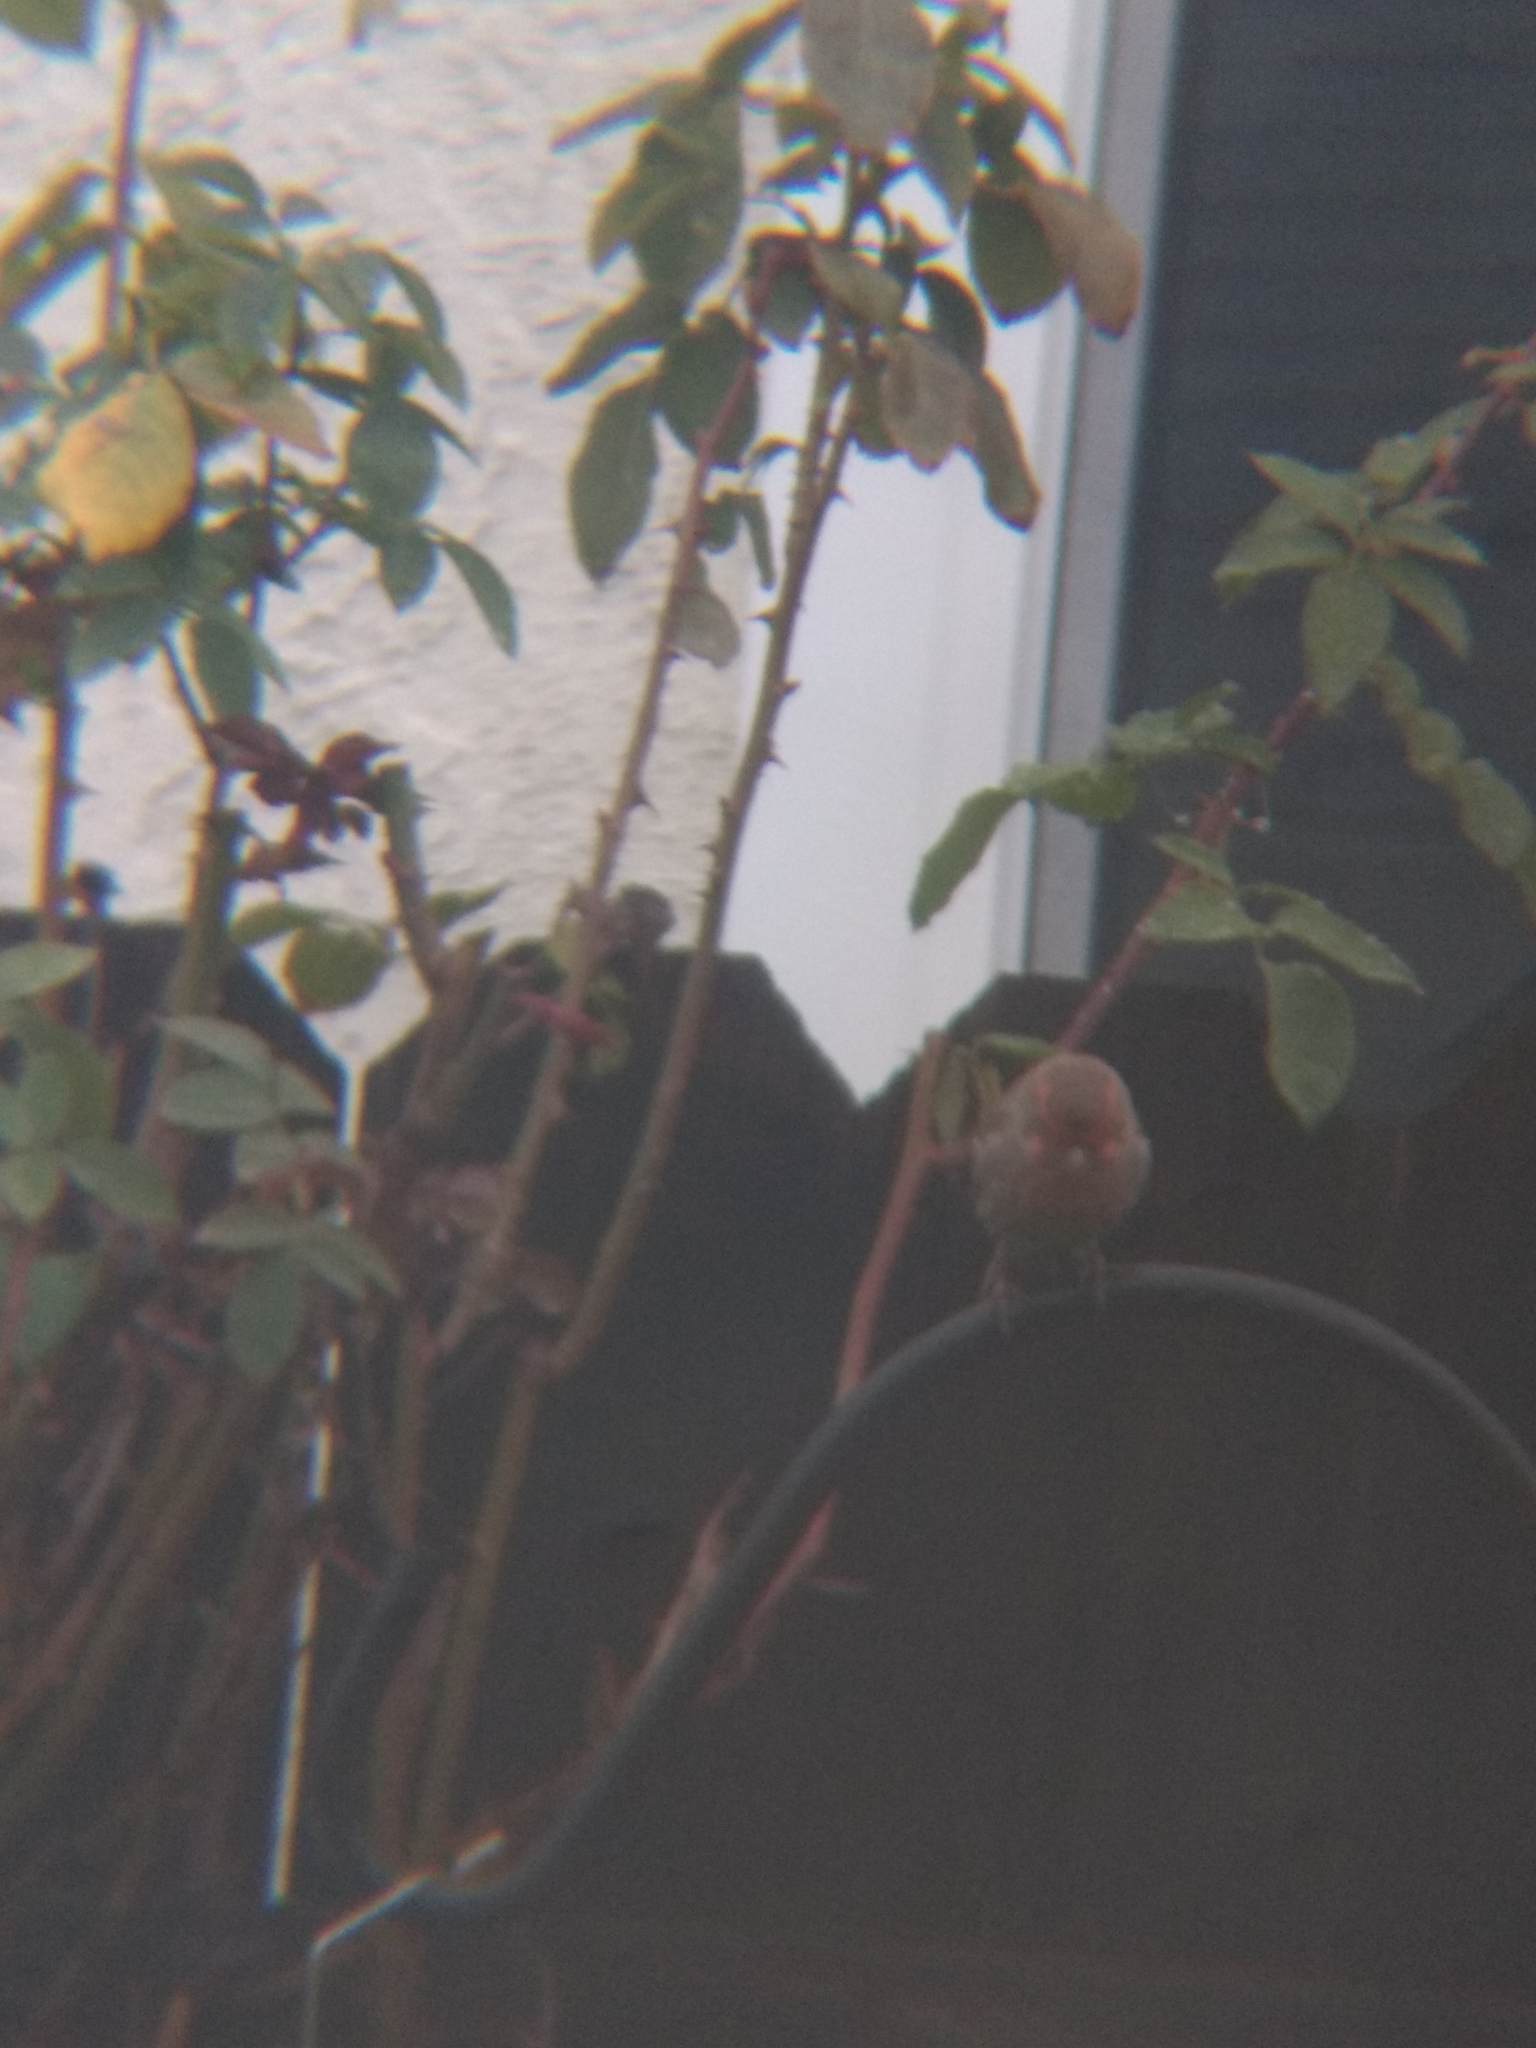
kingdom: Animalia
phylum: Chordata
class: Aves
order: Passeriformes
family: Fringillidae
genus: Haemorhous
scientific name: Haemorhous mexicanus
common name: House finch
